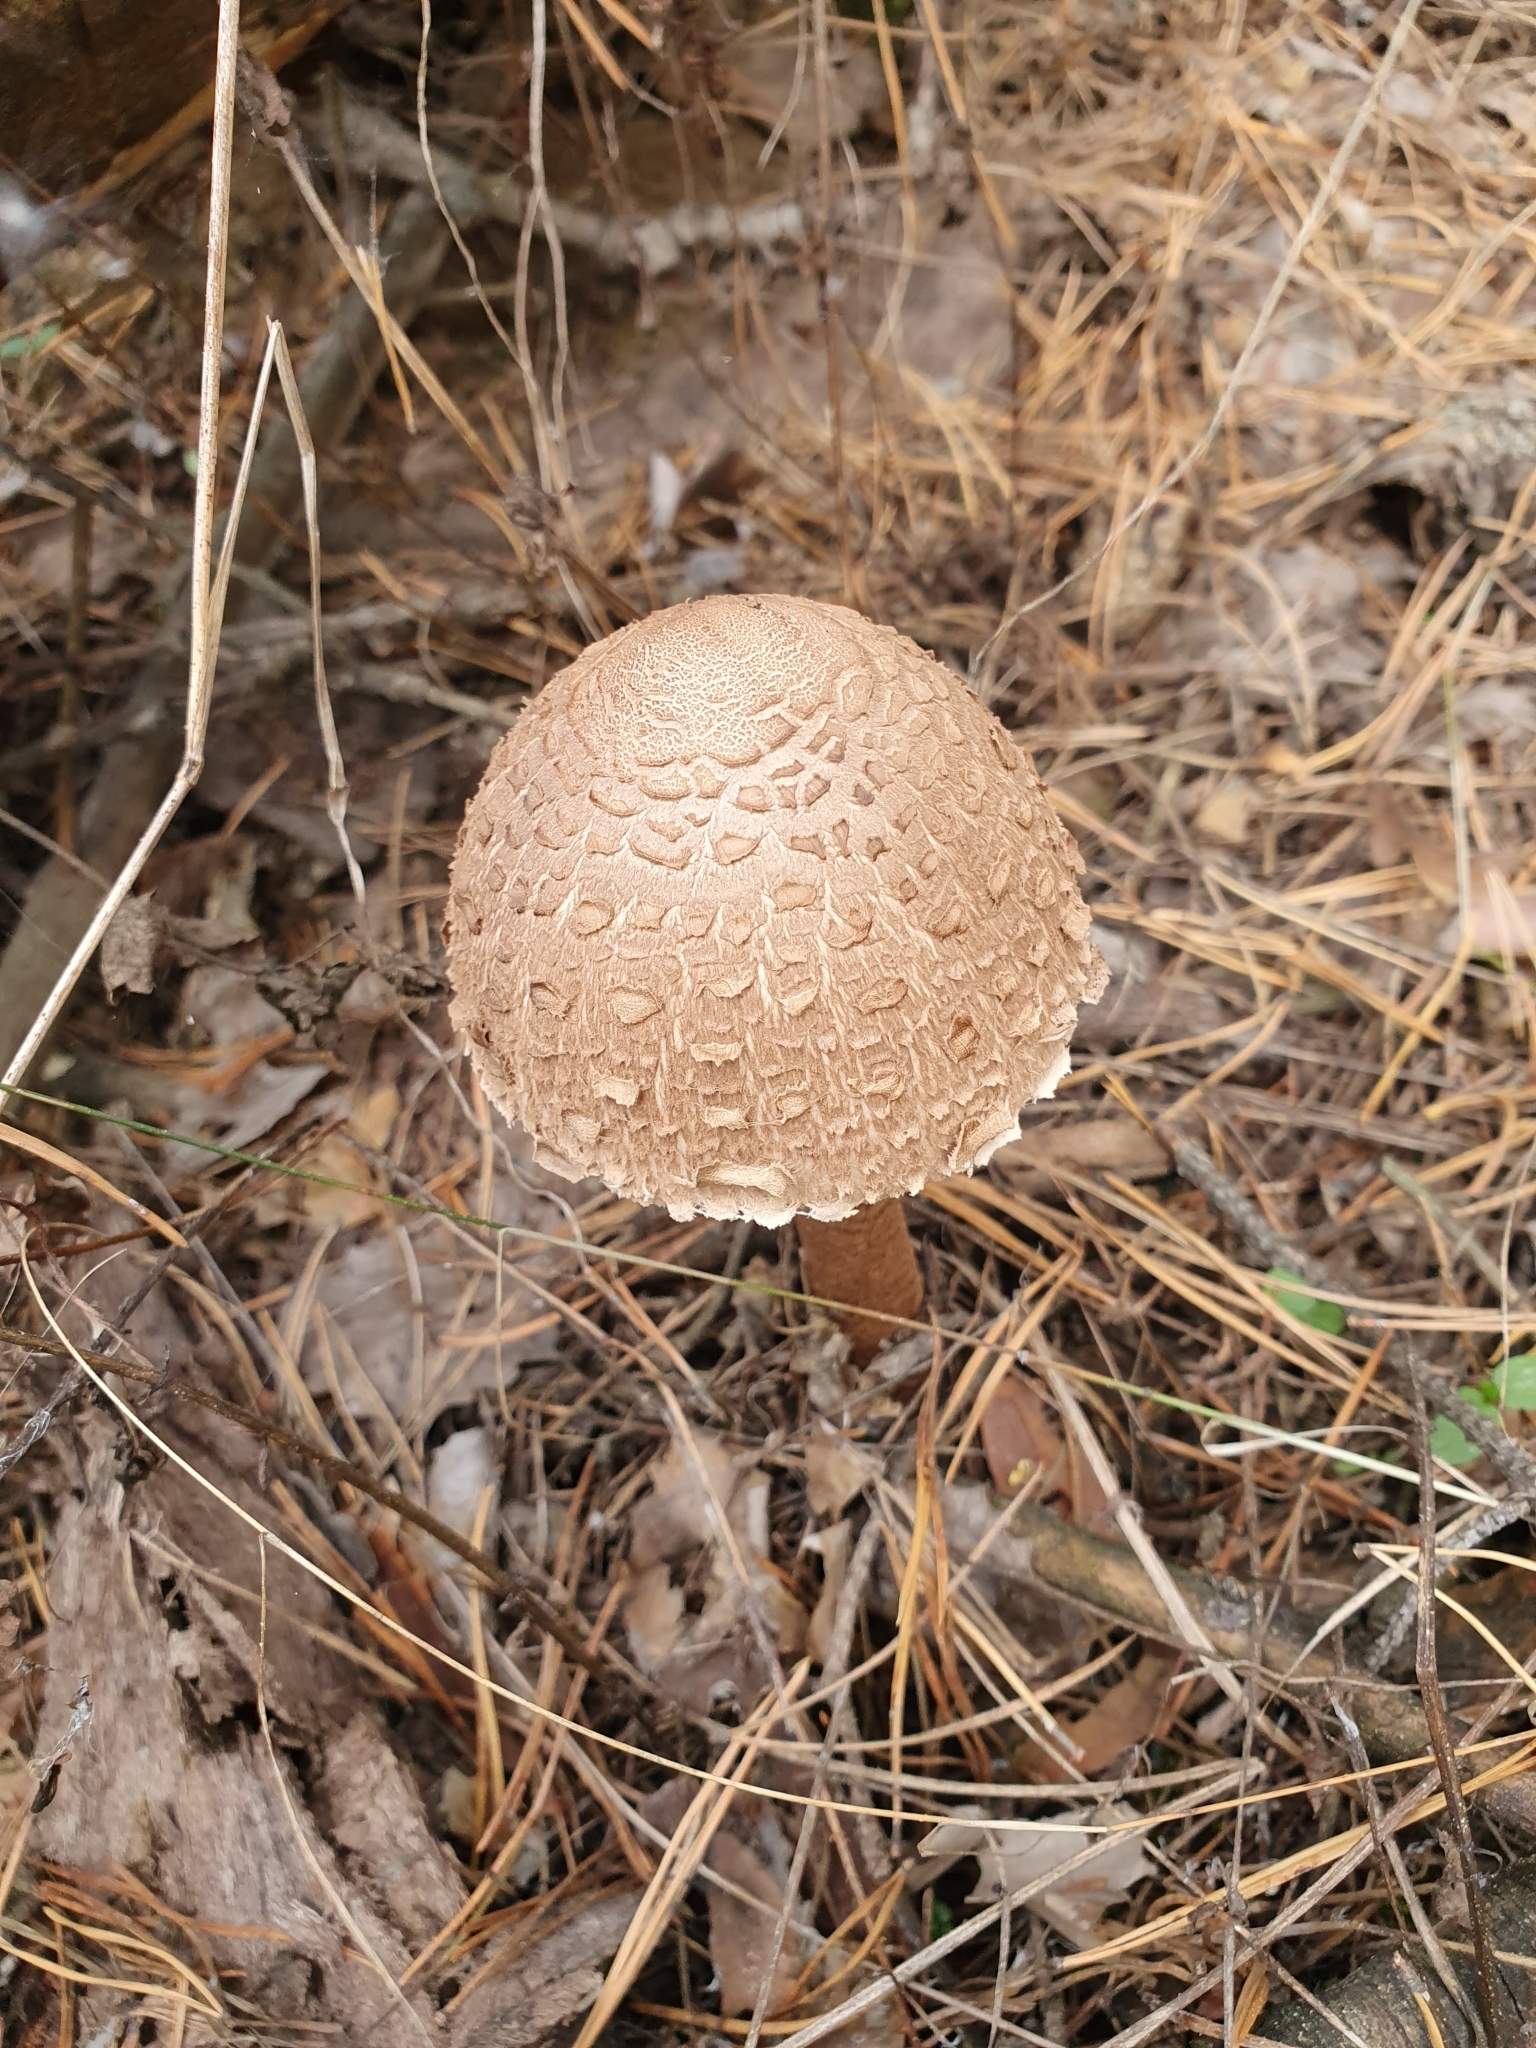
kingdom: Fungi
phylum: Basidiomycota
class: Agaricomycetes
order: Agaricales
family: Agaricaceae
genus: Macrolepiota
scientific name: Macrolepiota procera
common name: Parasol
